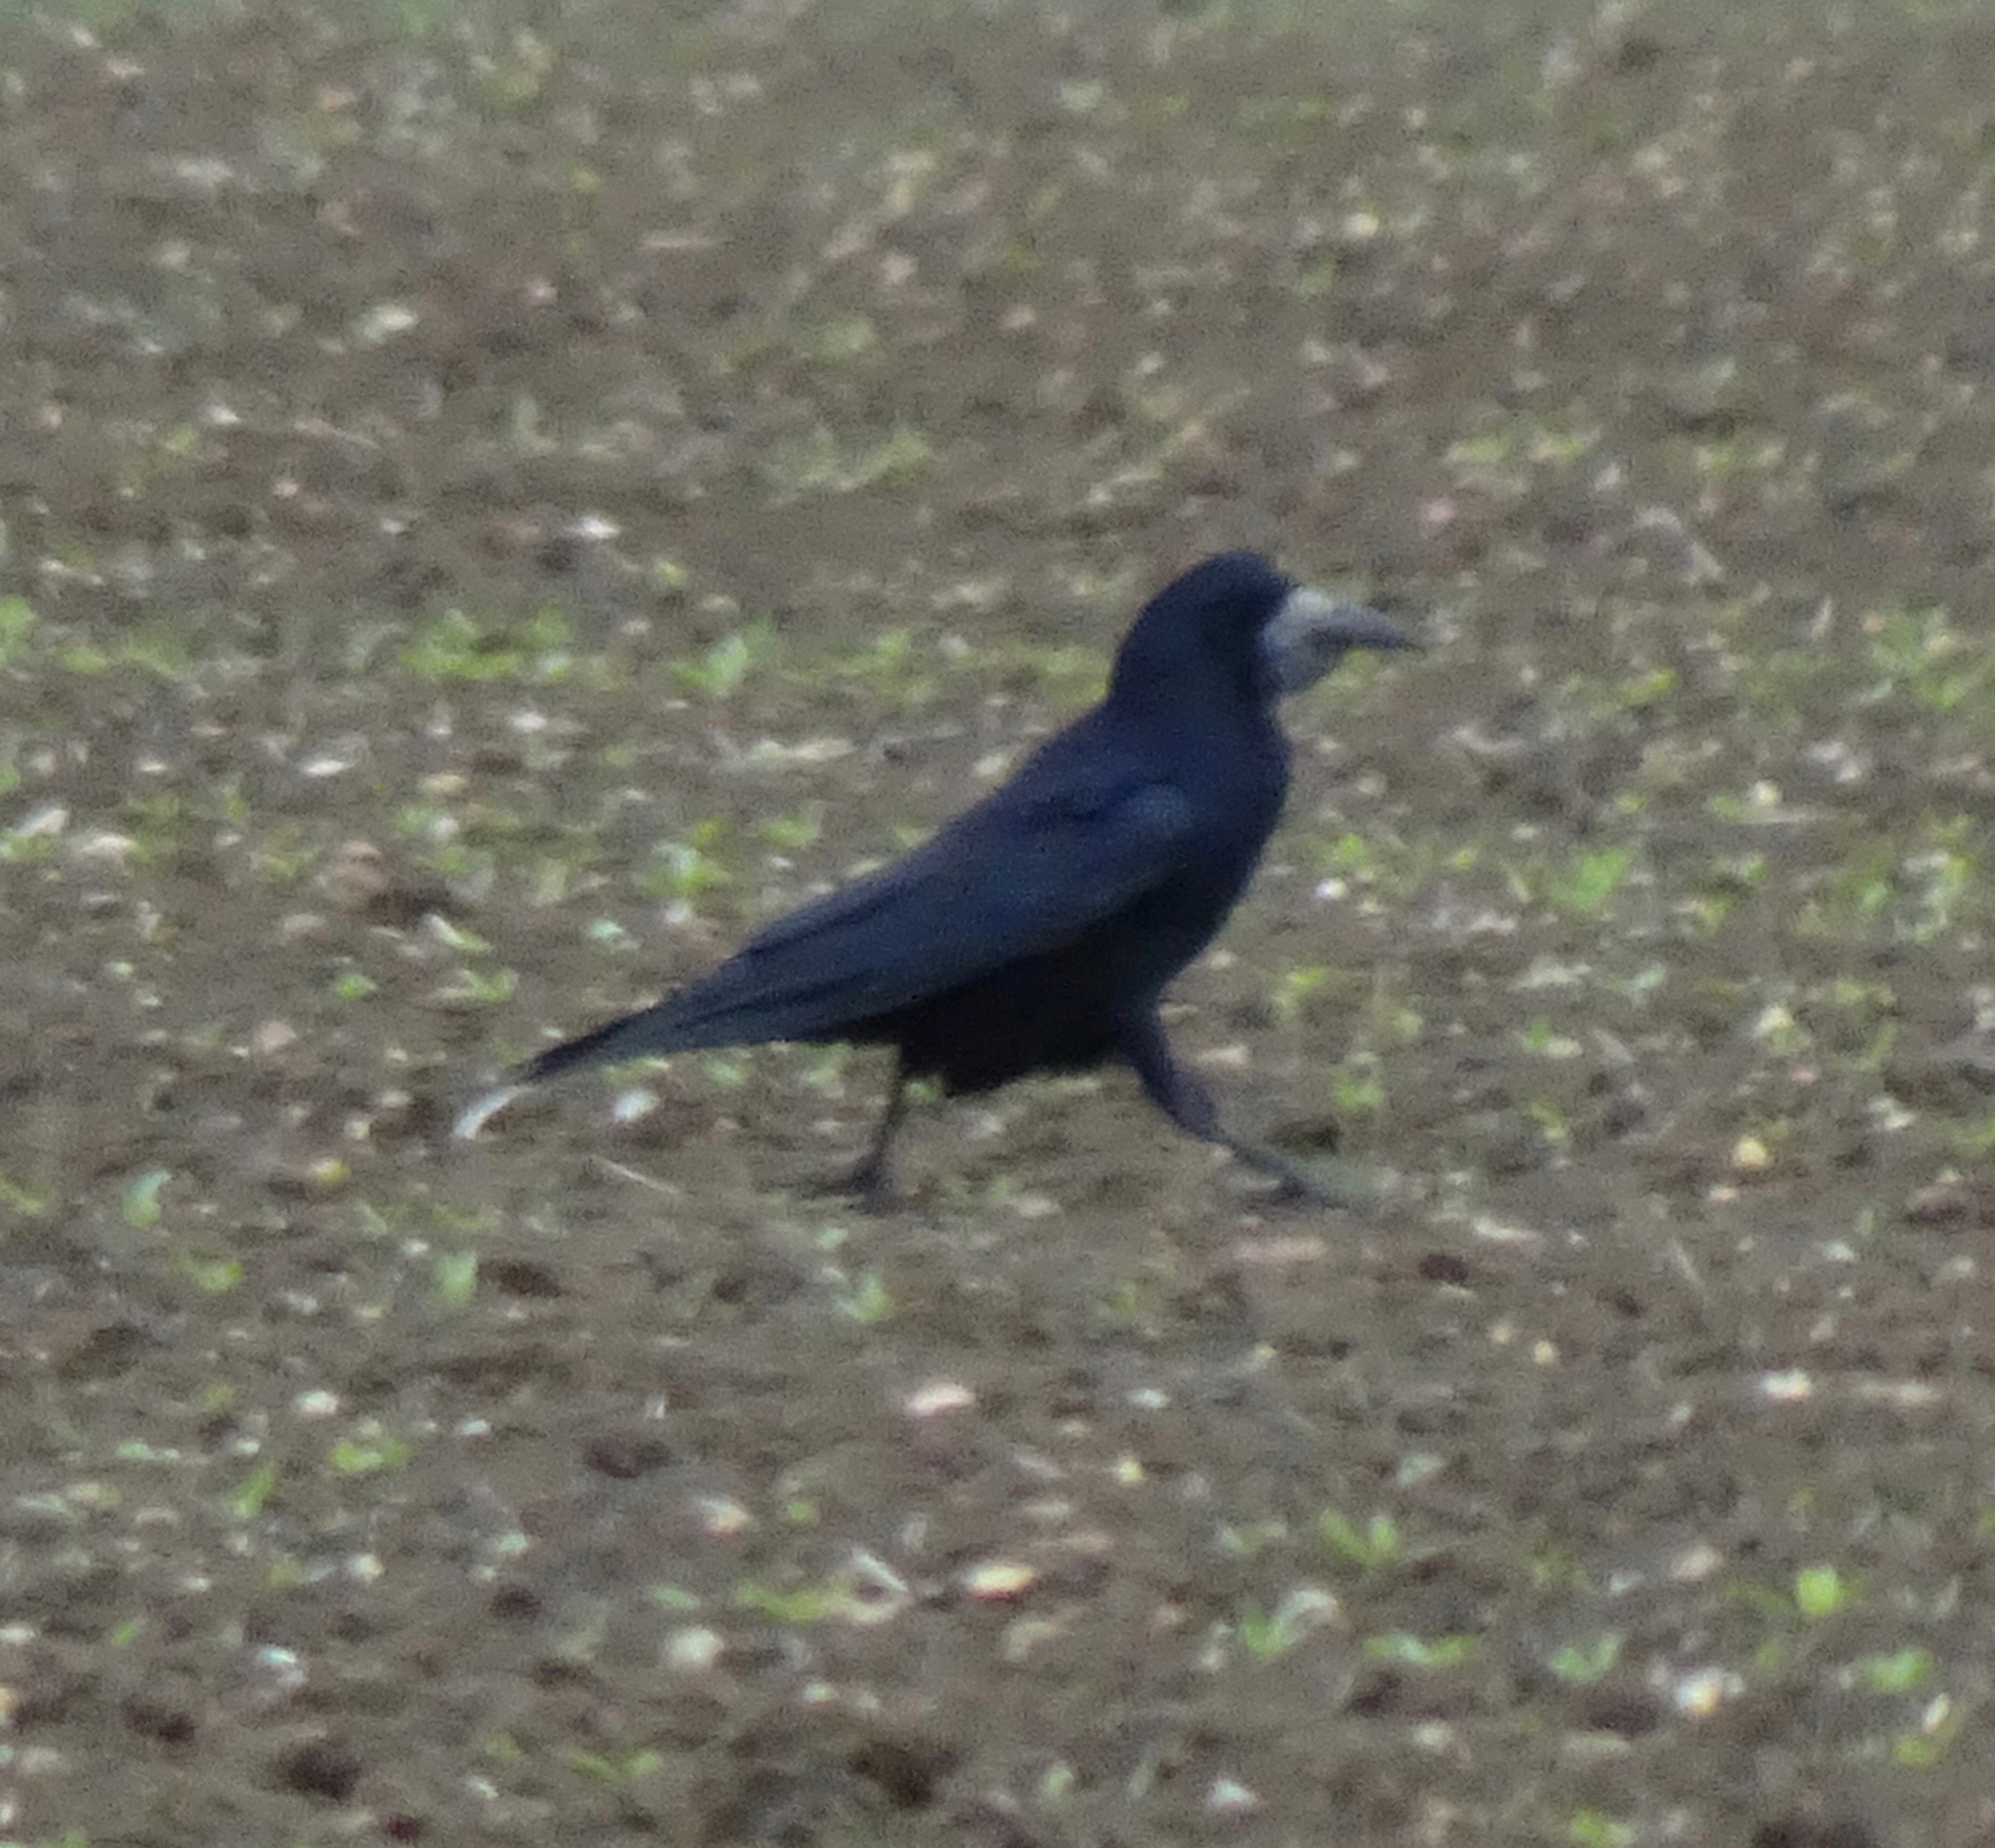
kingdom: Animalia
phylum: Chordata
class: Aves
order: Passeriformes
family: Corvidae
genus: Corvus
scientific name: Corvus frugilegus
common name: Rook
